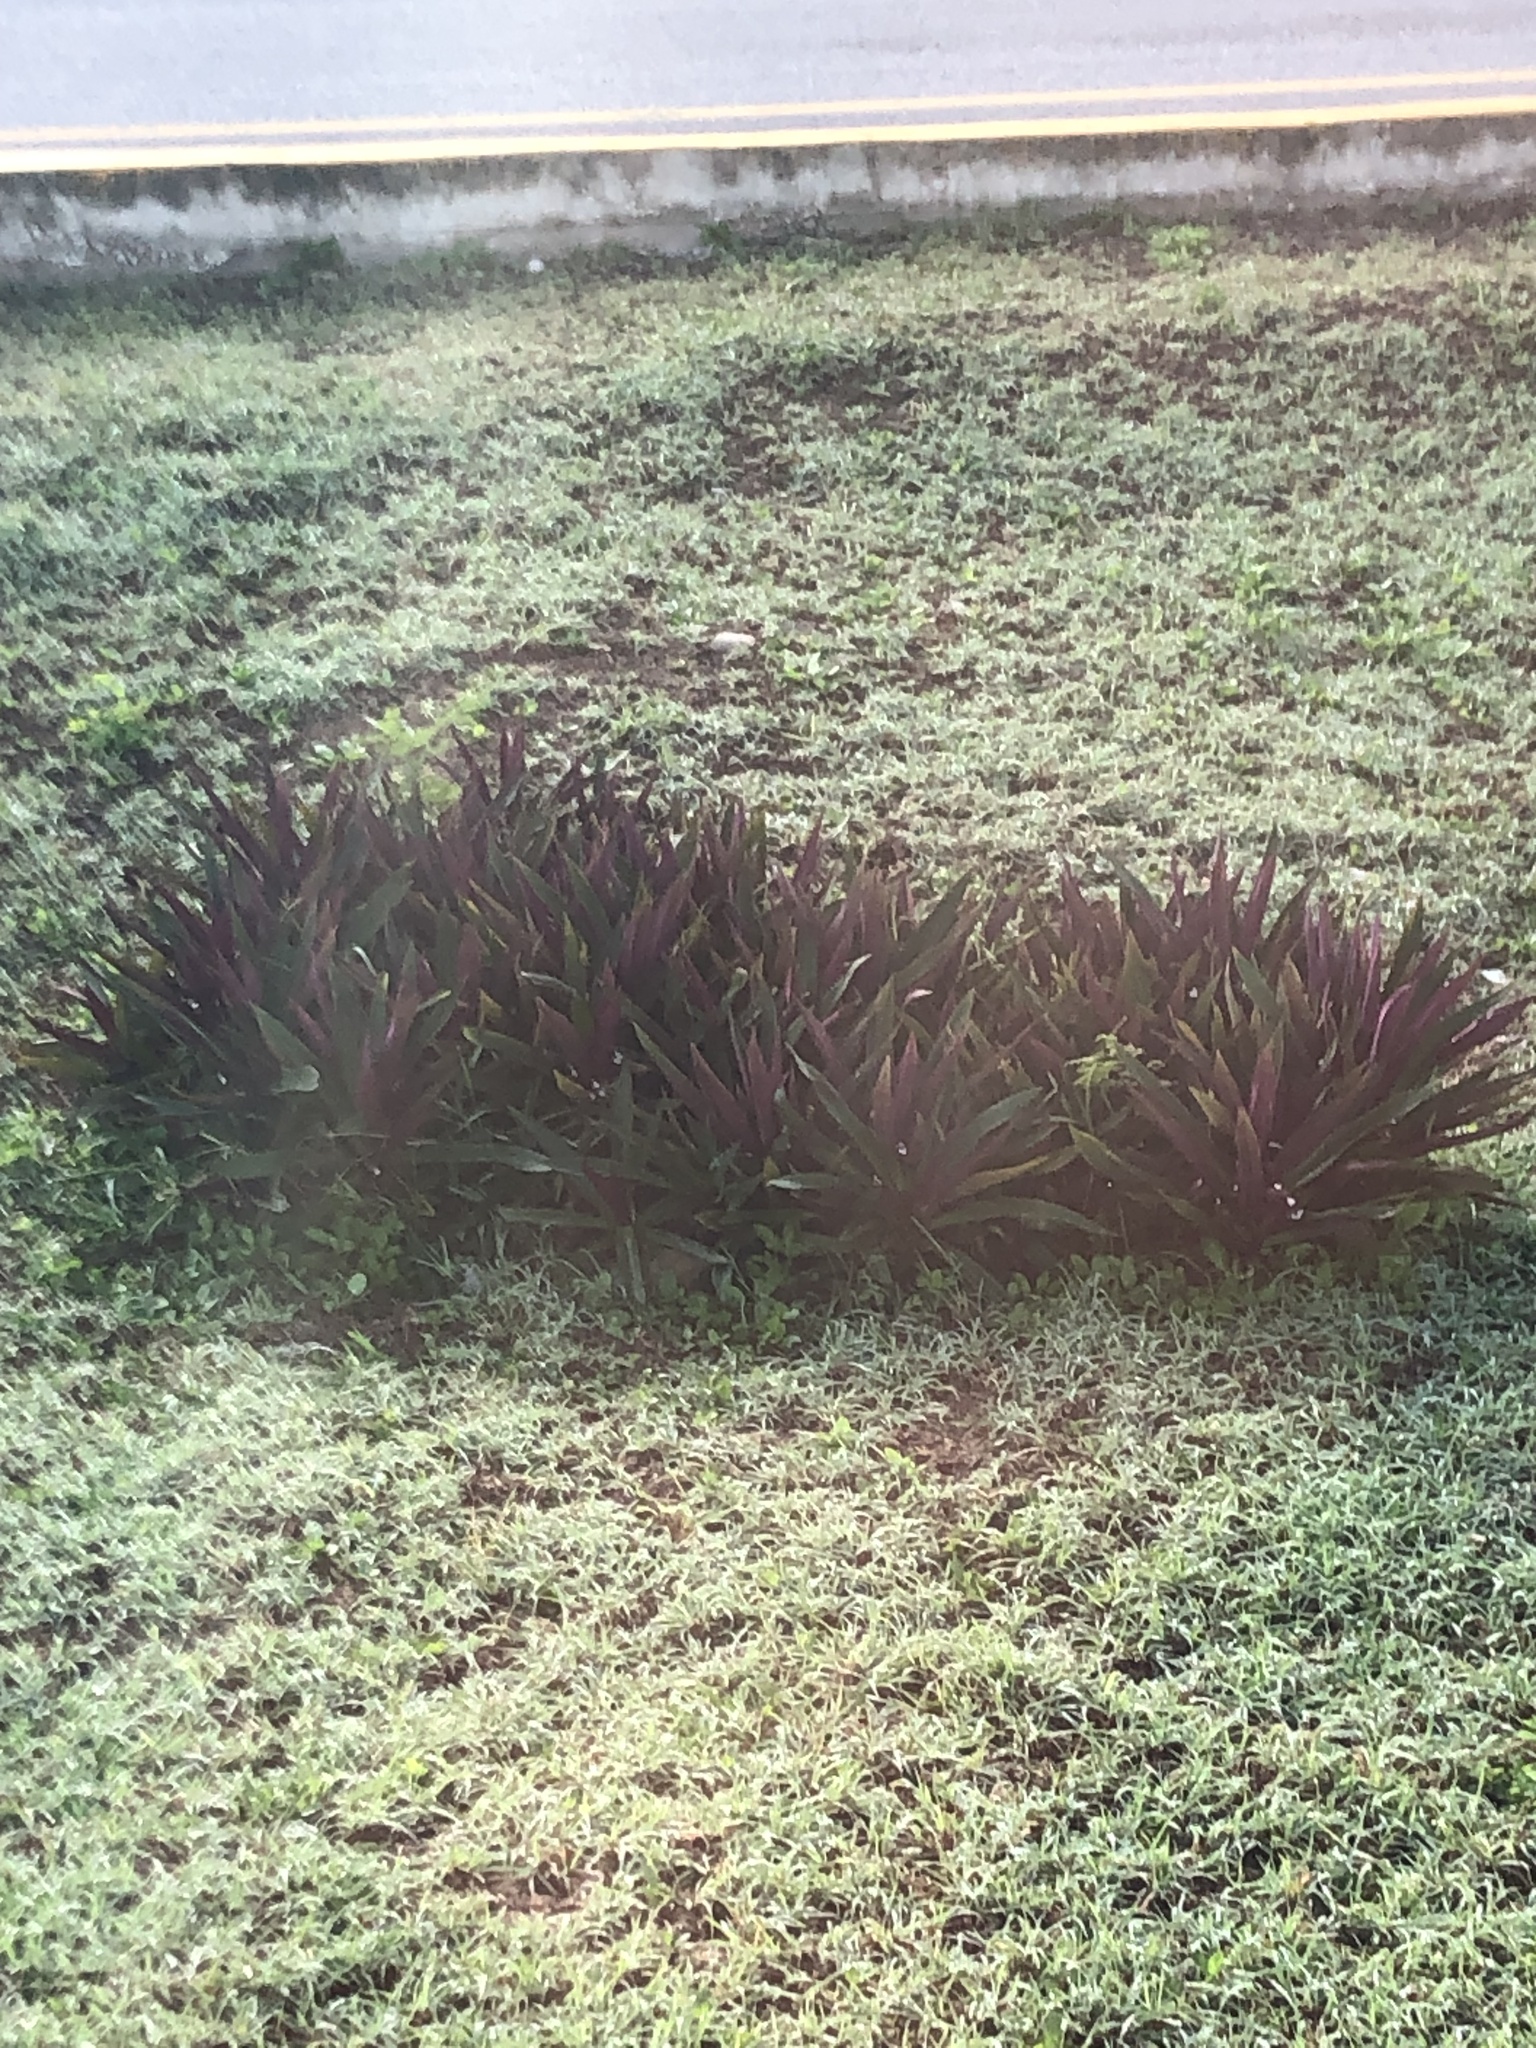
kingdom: Plantae
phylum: Tracheophyta
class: Liliopsida
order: Commelinales
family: Commelinaceae
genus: Tradescantia
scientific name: Tradescantia spathacea
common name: Boatlily
